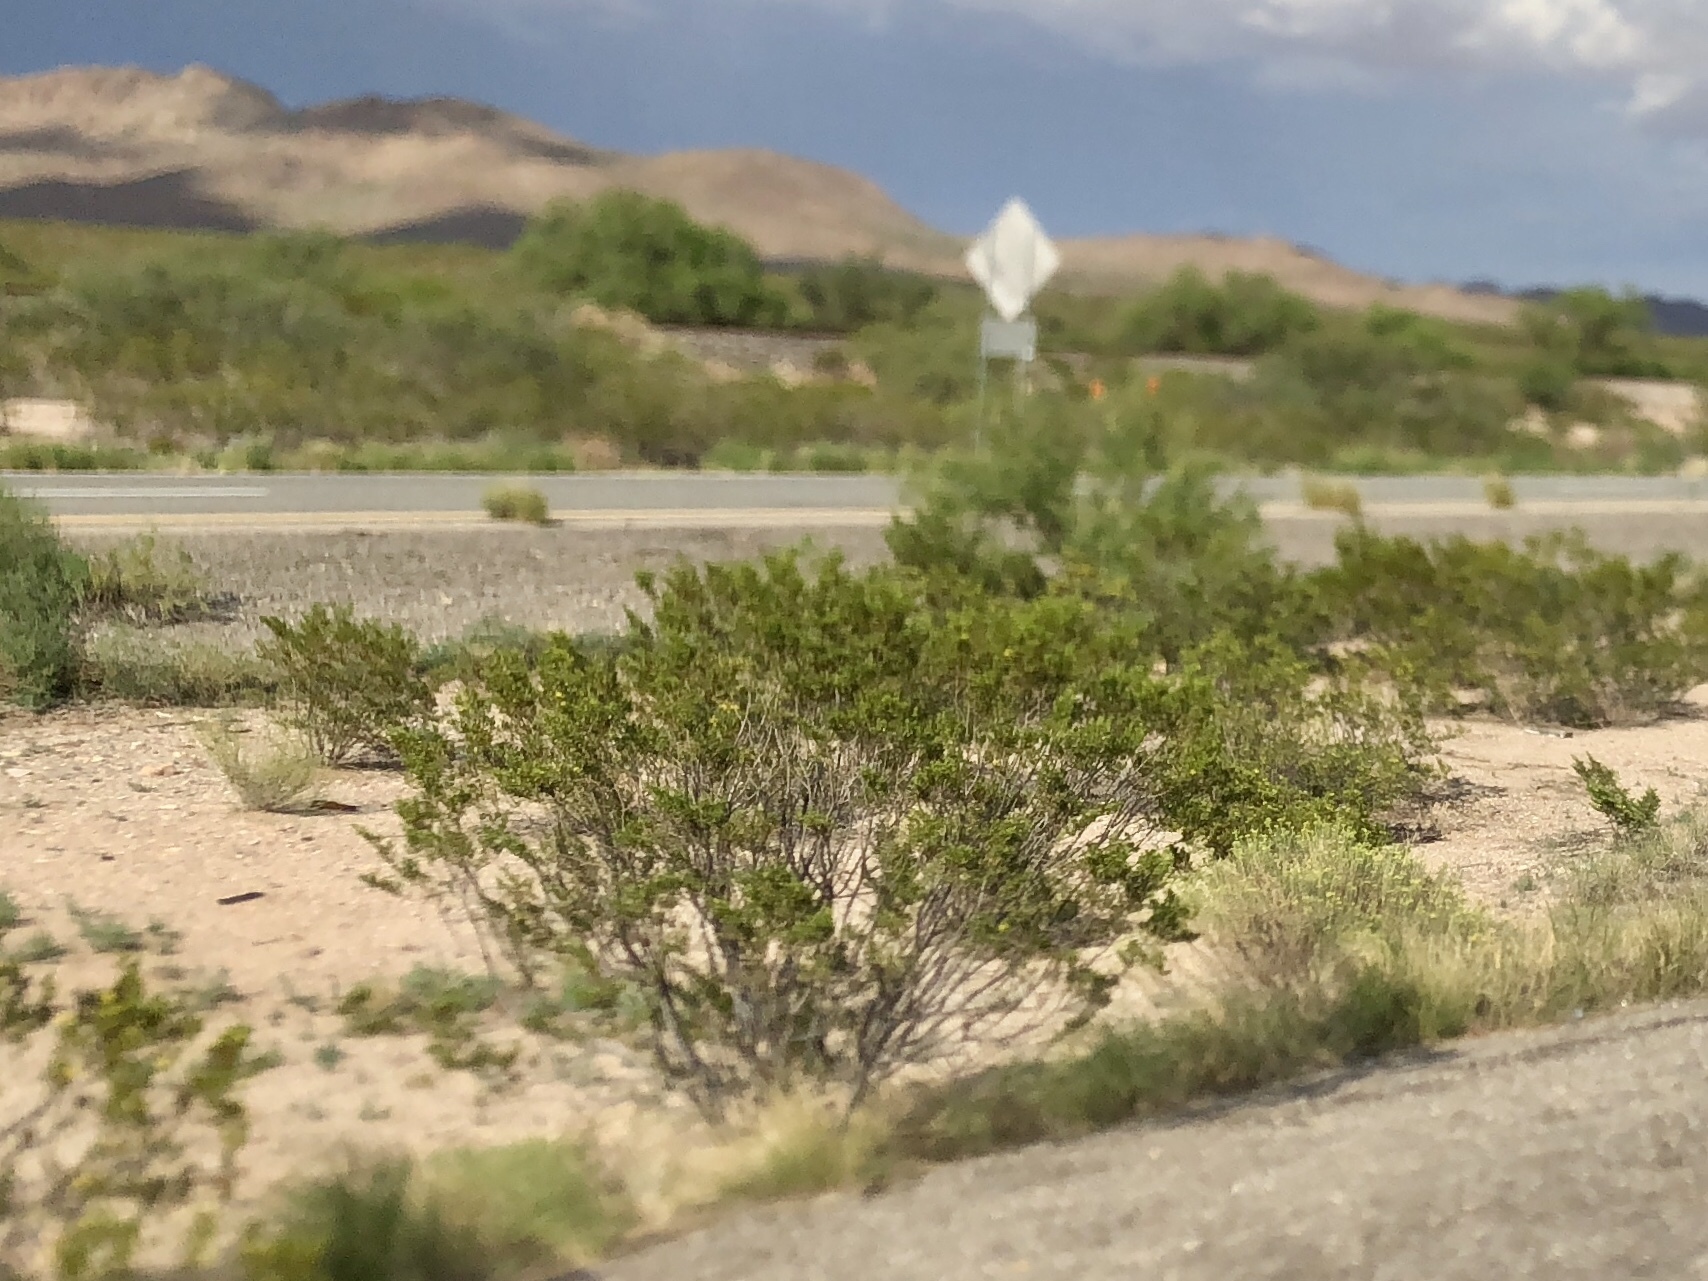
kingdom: Plantae
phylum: Tracheophyta
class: Magnoliopsida
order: Zygophyllales
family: Zygophyllaceae
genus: Larrea
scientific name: Larrea tridentata
